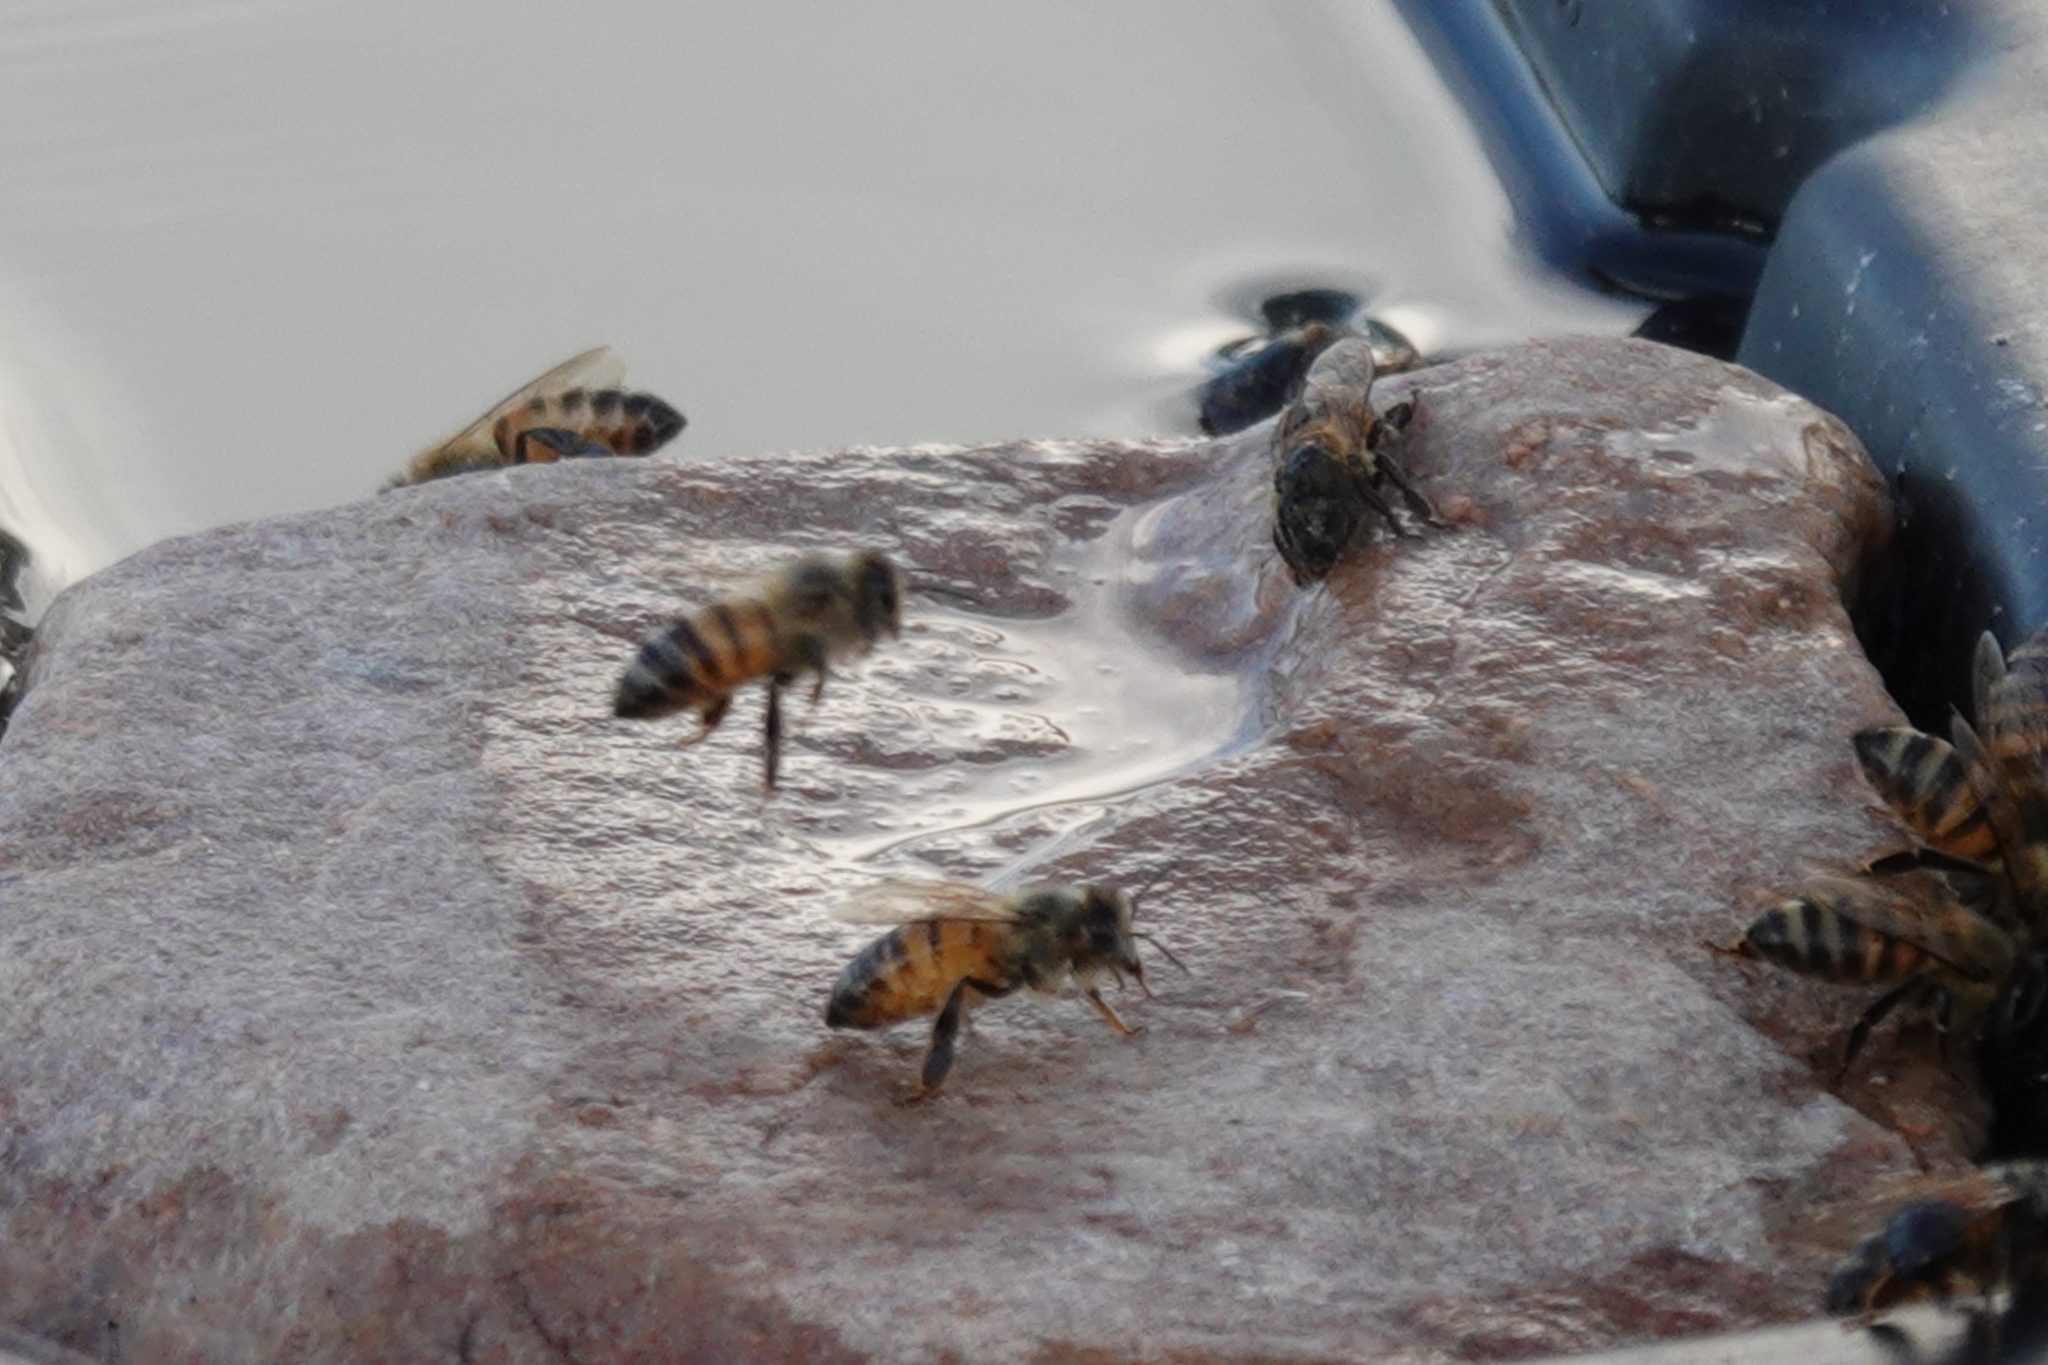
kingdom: Animalia
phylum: Arthropoda
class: Insecta
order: Hymenoptera
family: Apidae
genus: Apis
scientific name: Apis mellifera
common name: Honey bee
